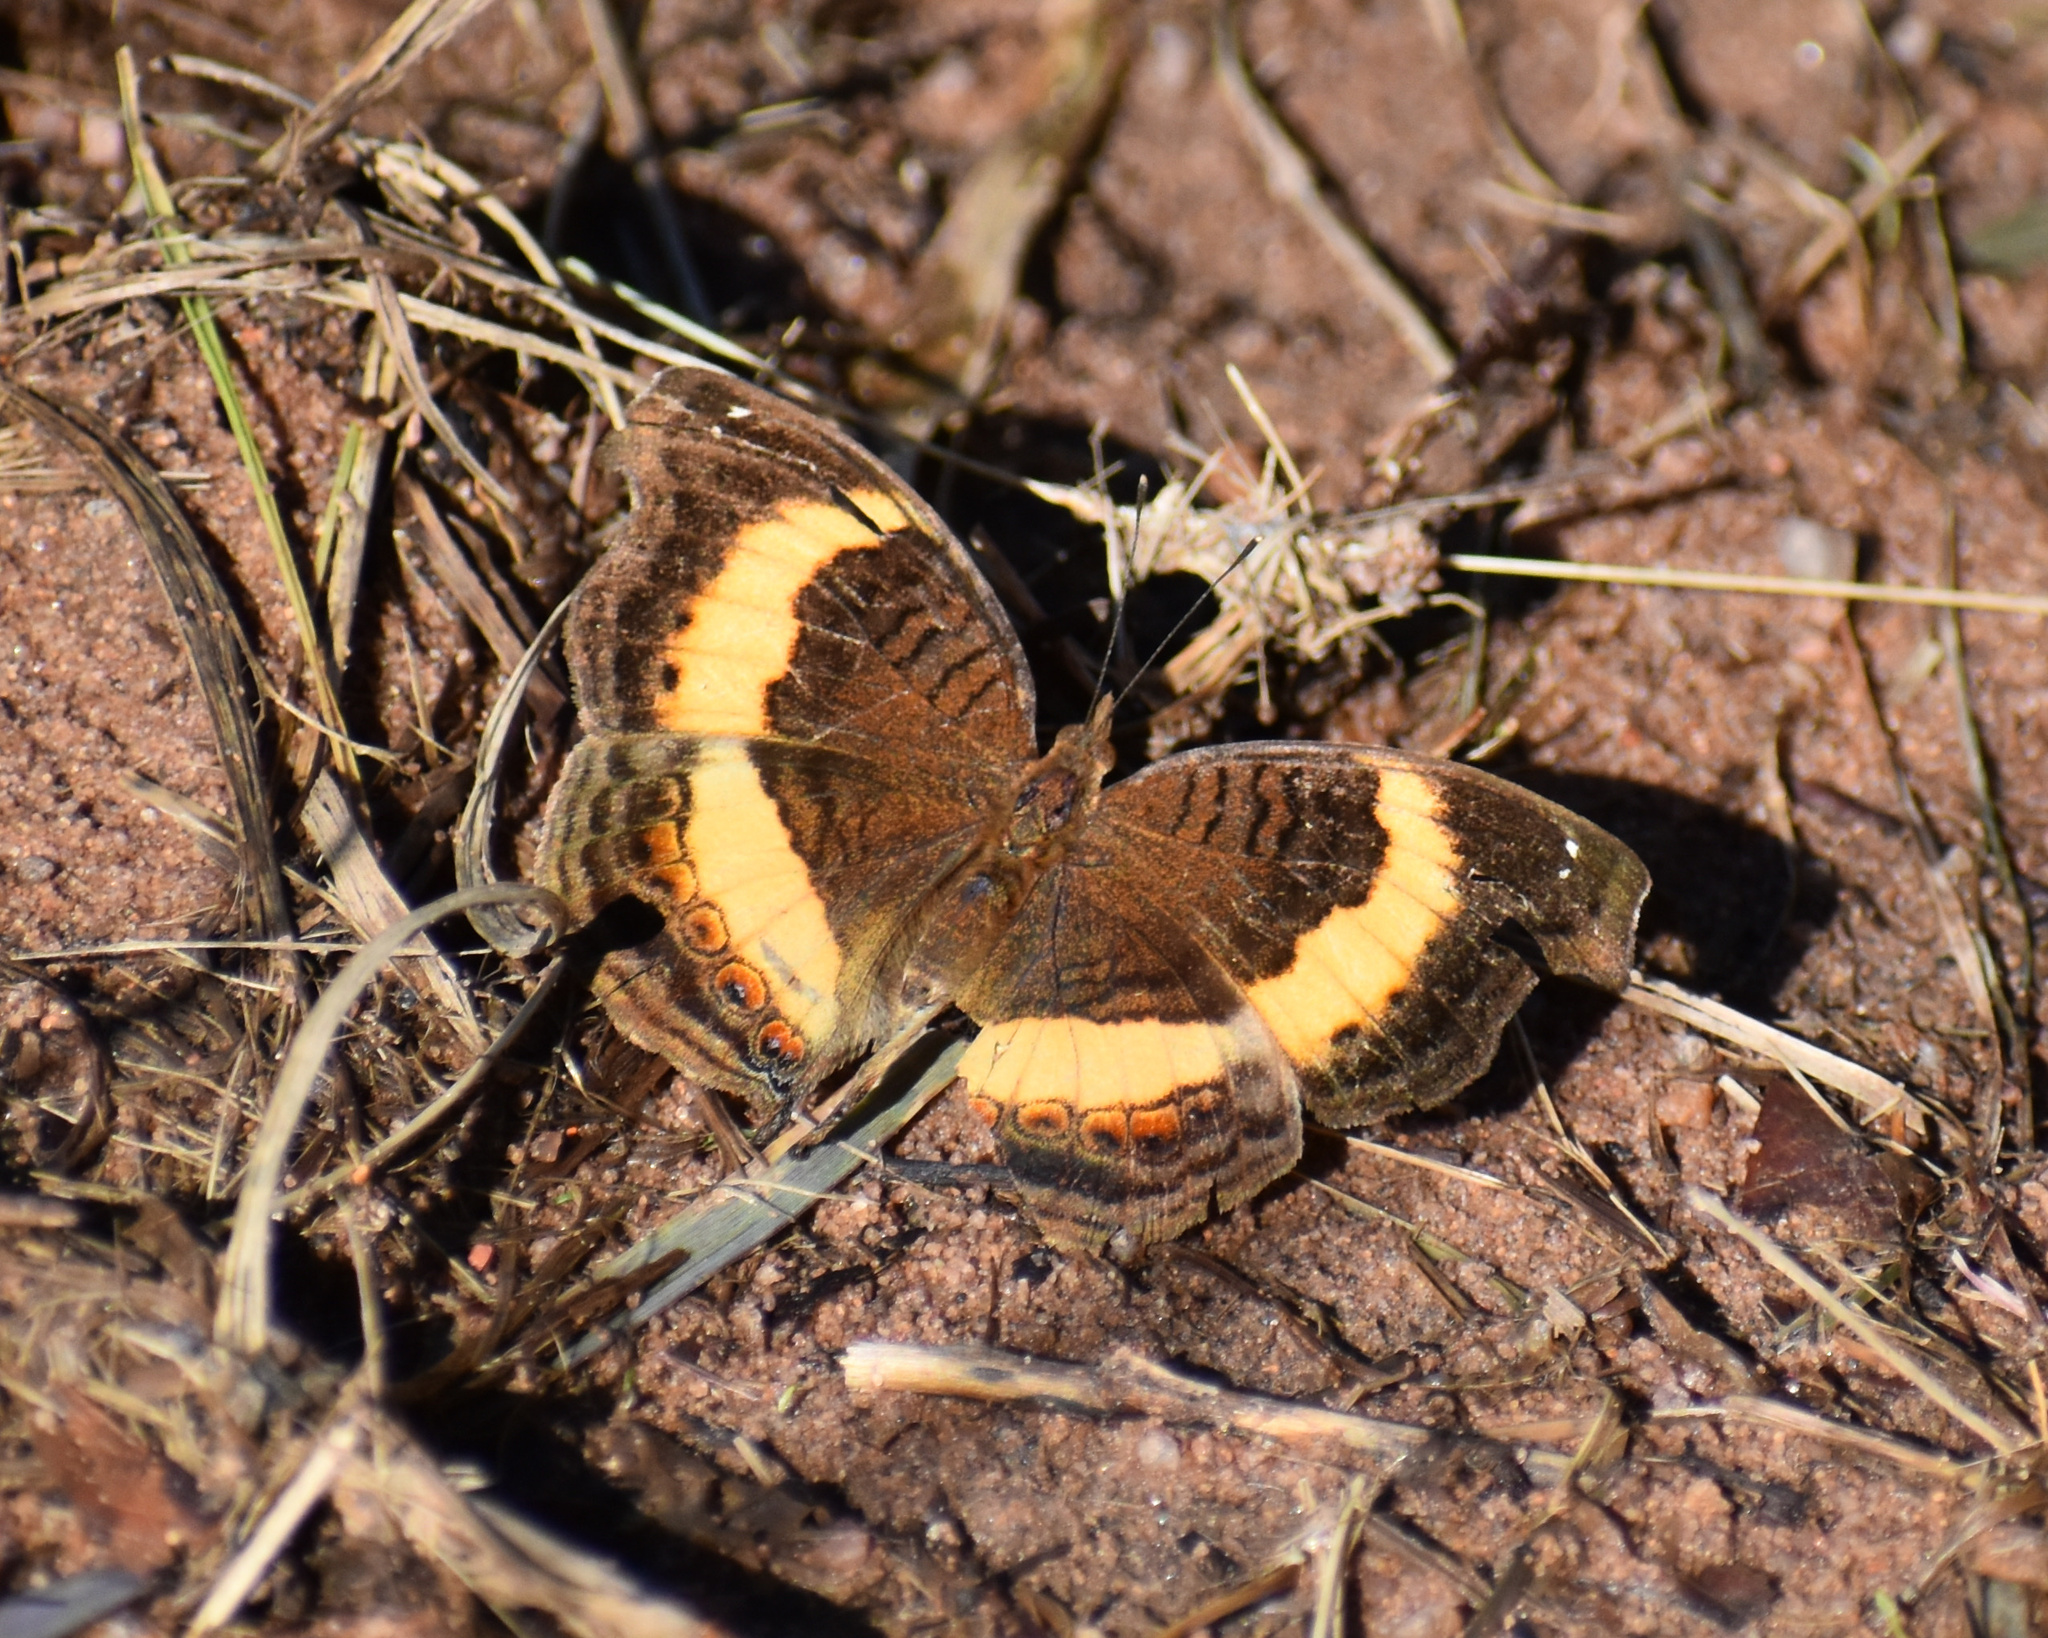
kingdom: Animalia
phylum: Arthropoda
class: Insecta
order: Lepidoptera
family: Nymphalidae
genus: Junonia
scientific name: Junonia terea
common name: Soldier pansy
